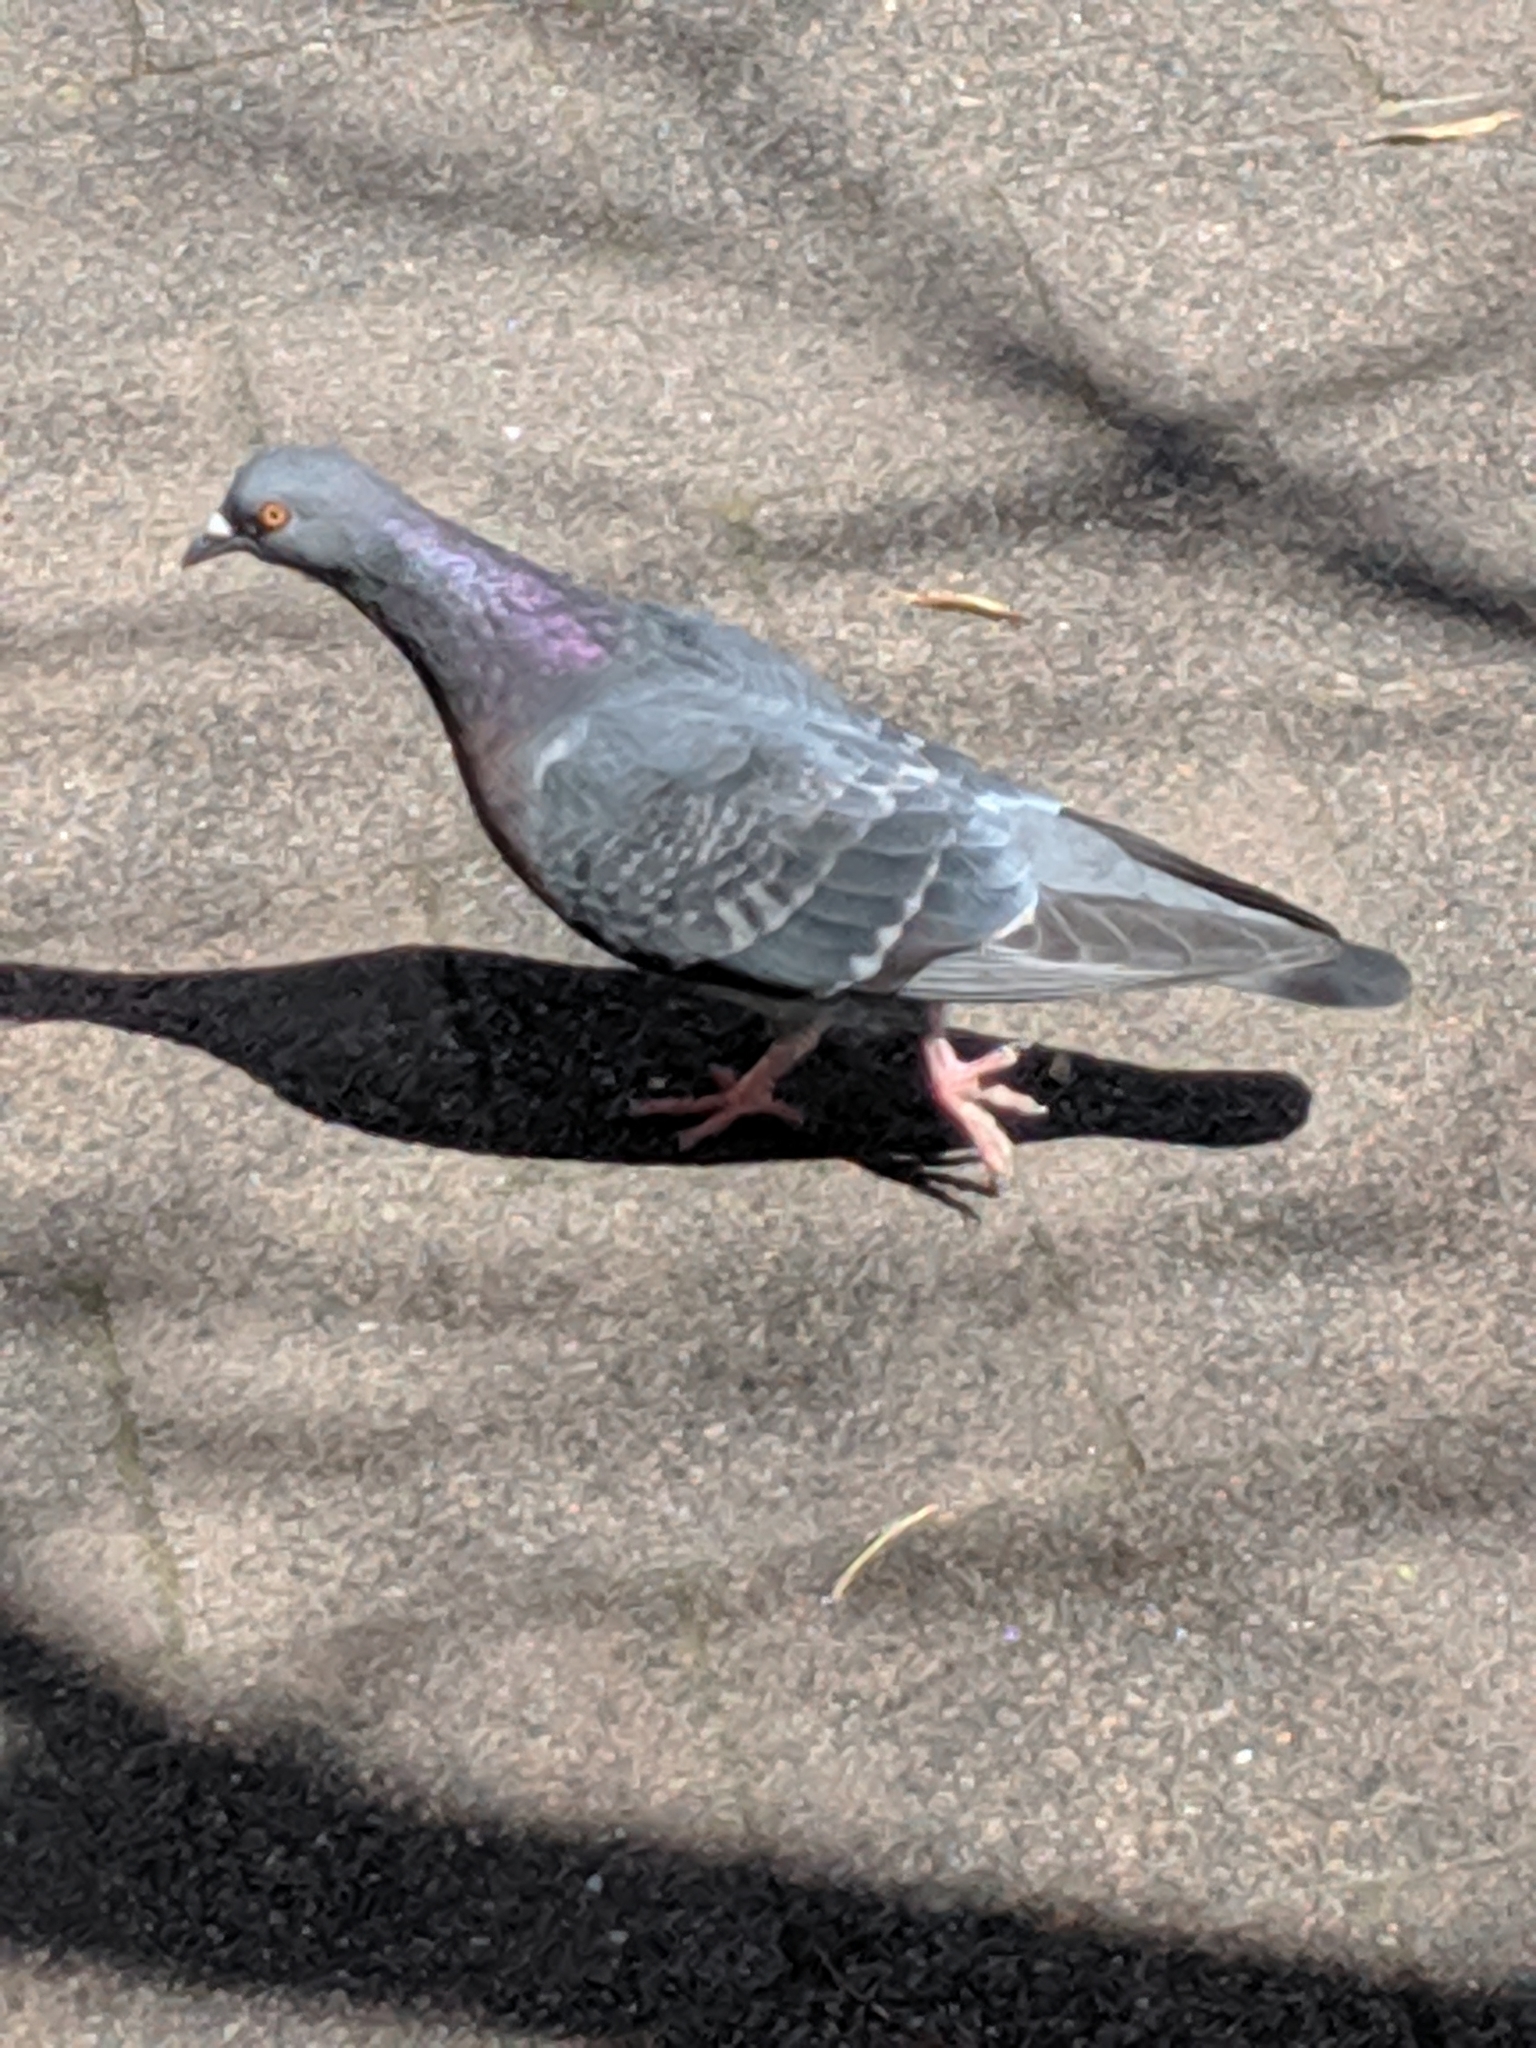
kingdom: Animalia
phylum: Chordata
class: Aves
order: Columbiformes
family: Columbidae
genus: Columba
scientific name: Columba livia
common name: Rock pigeon
